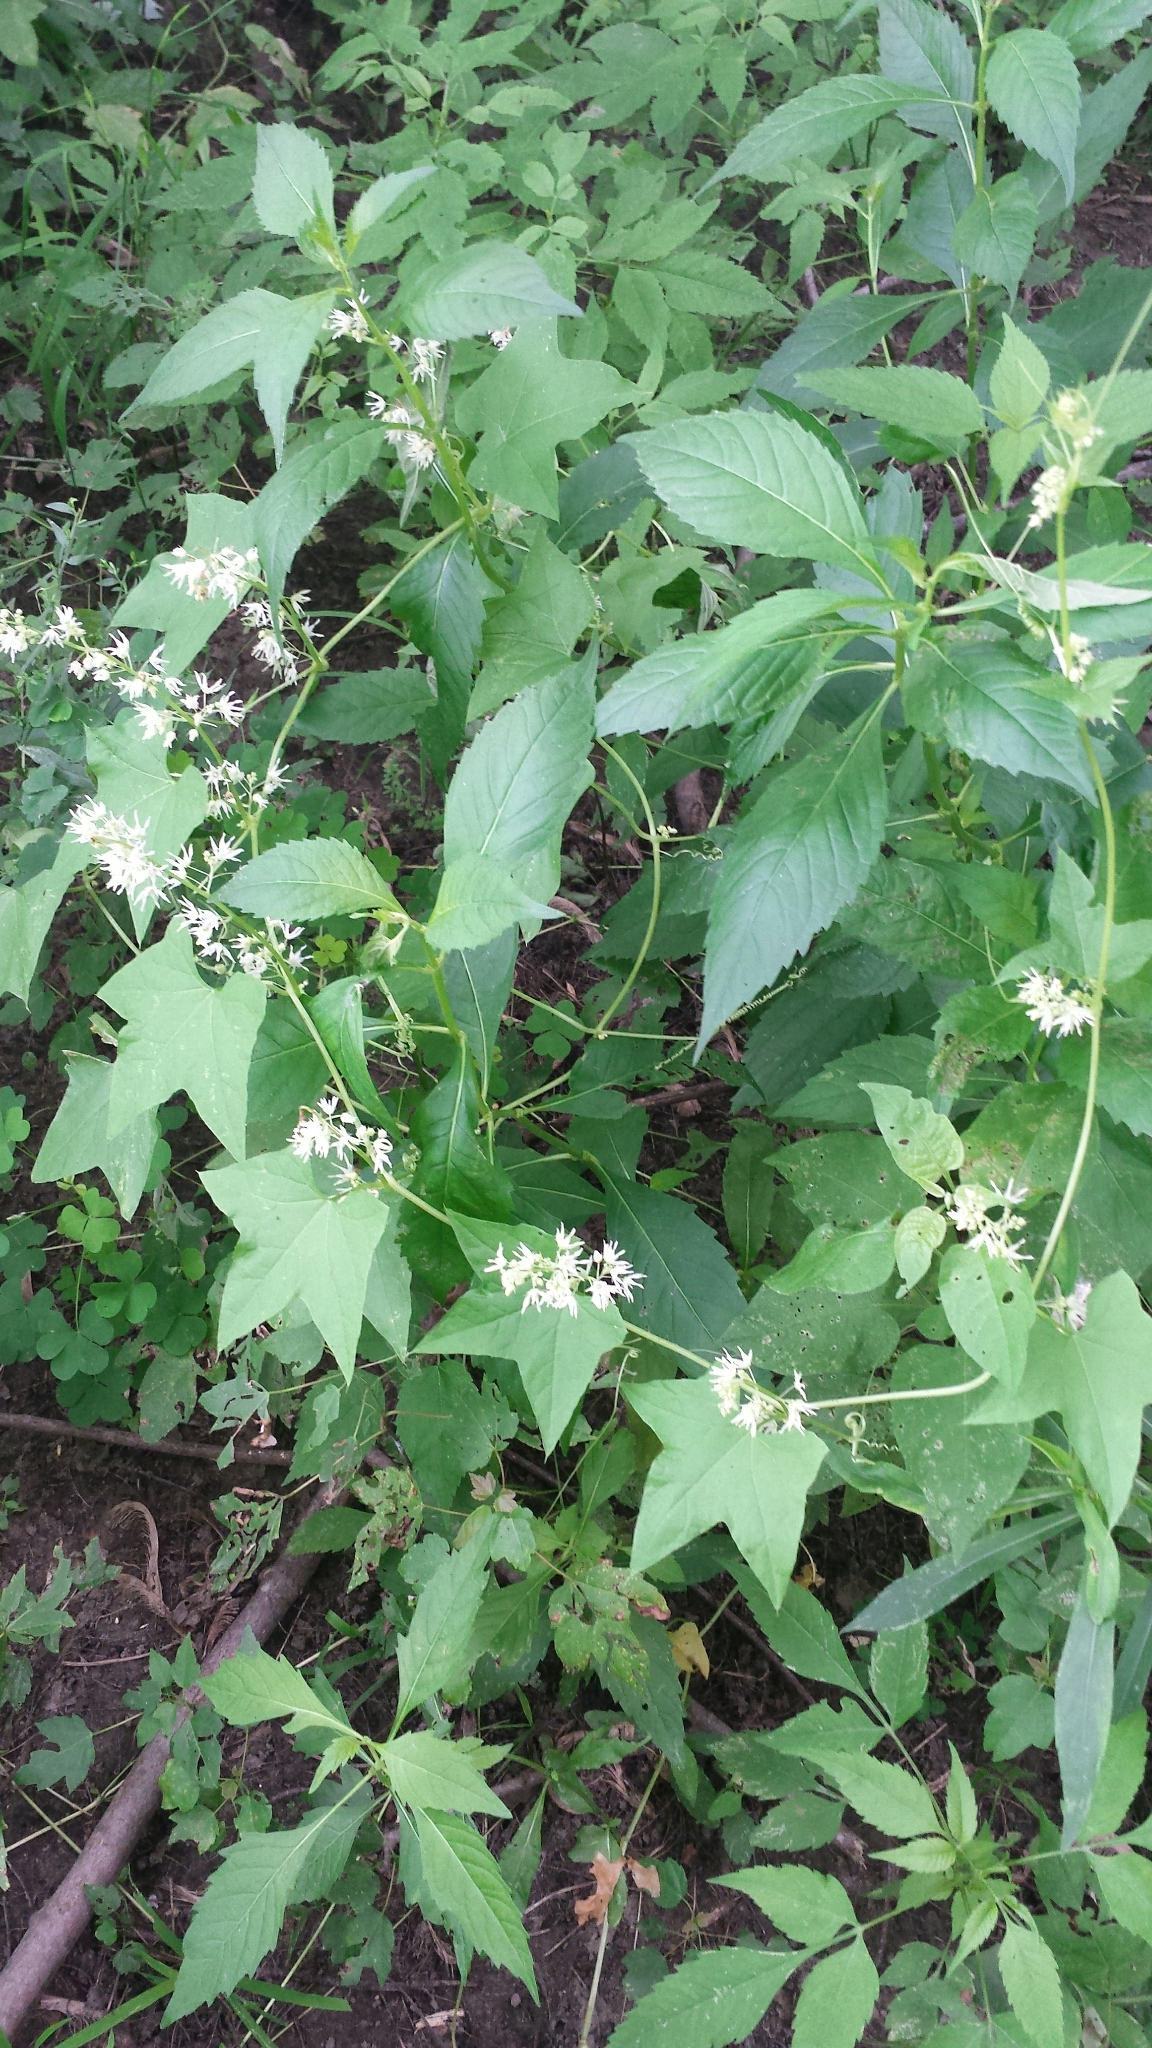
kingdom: Plantae
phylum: Tracheophyta
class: Magnoliopsida
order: Cucurbitales
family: Cucurbitaceae
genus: Echinocystis
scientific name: Echinocystis lobata
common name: Wild cucumber
